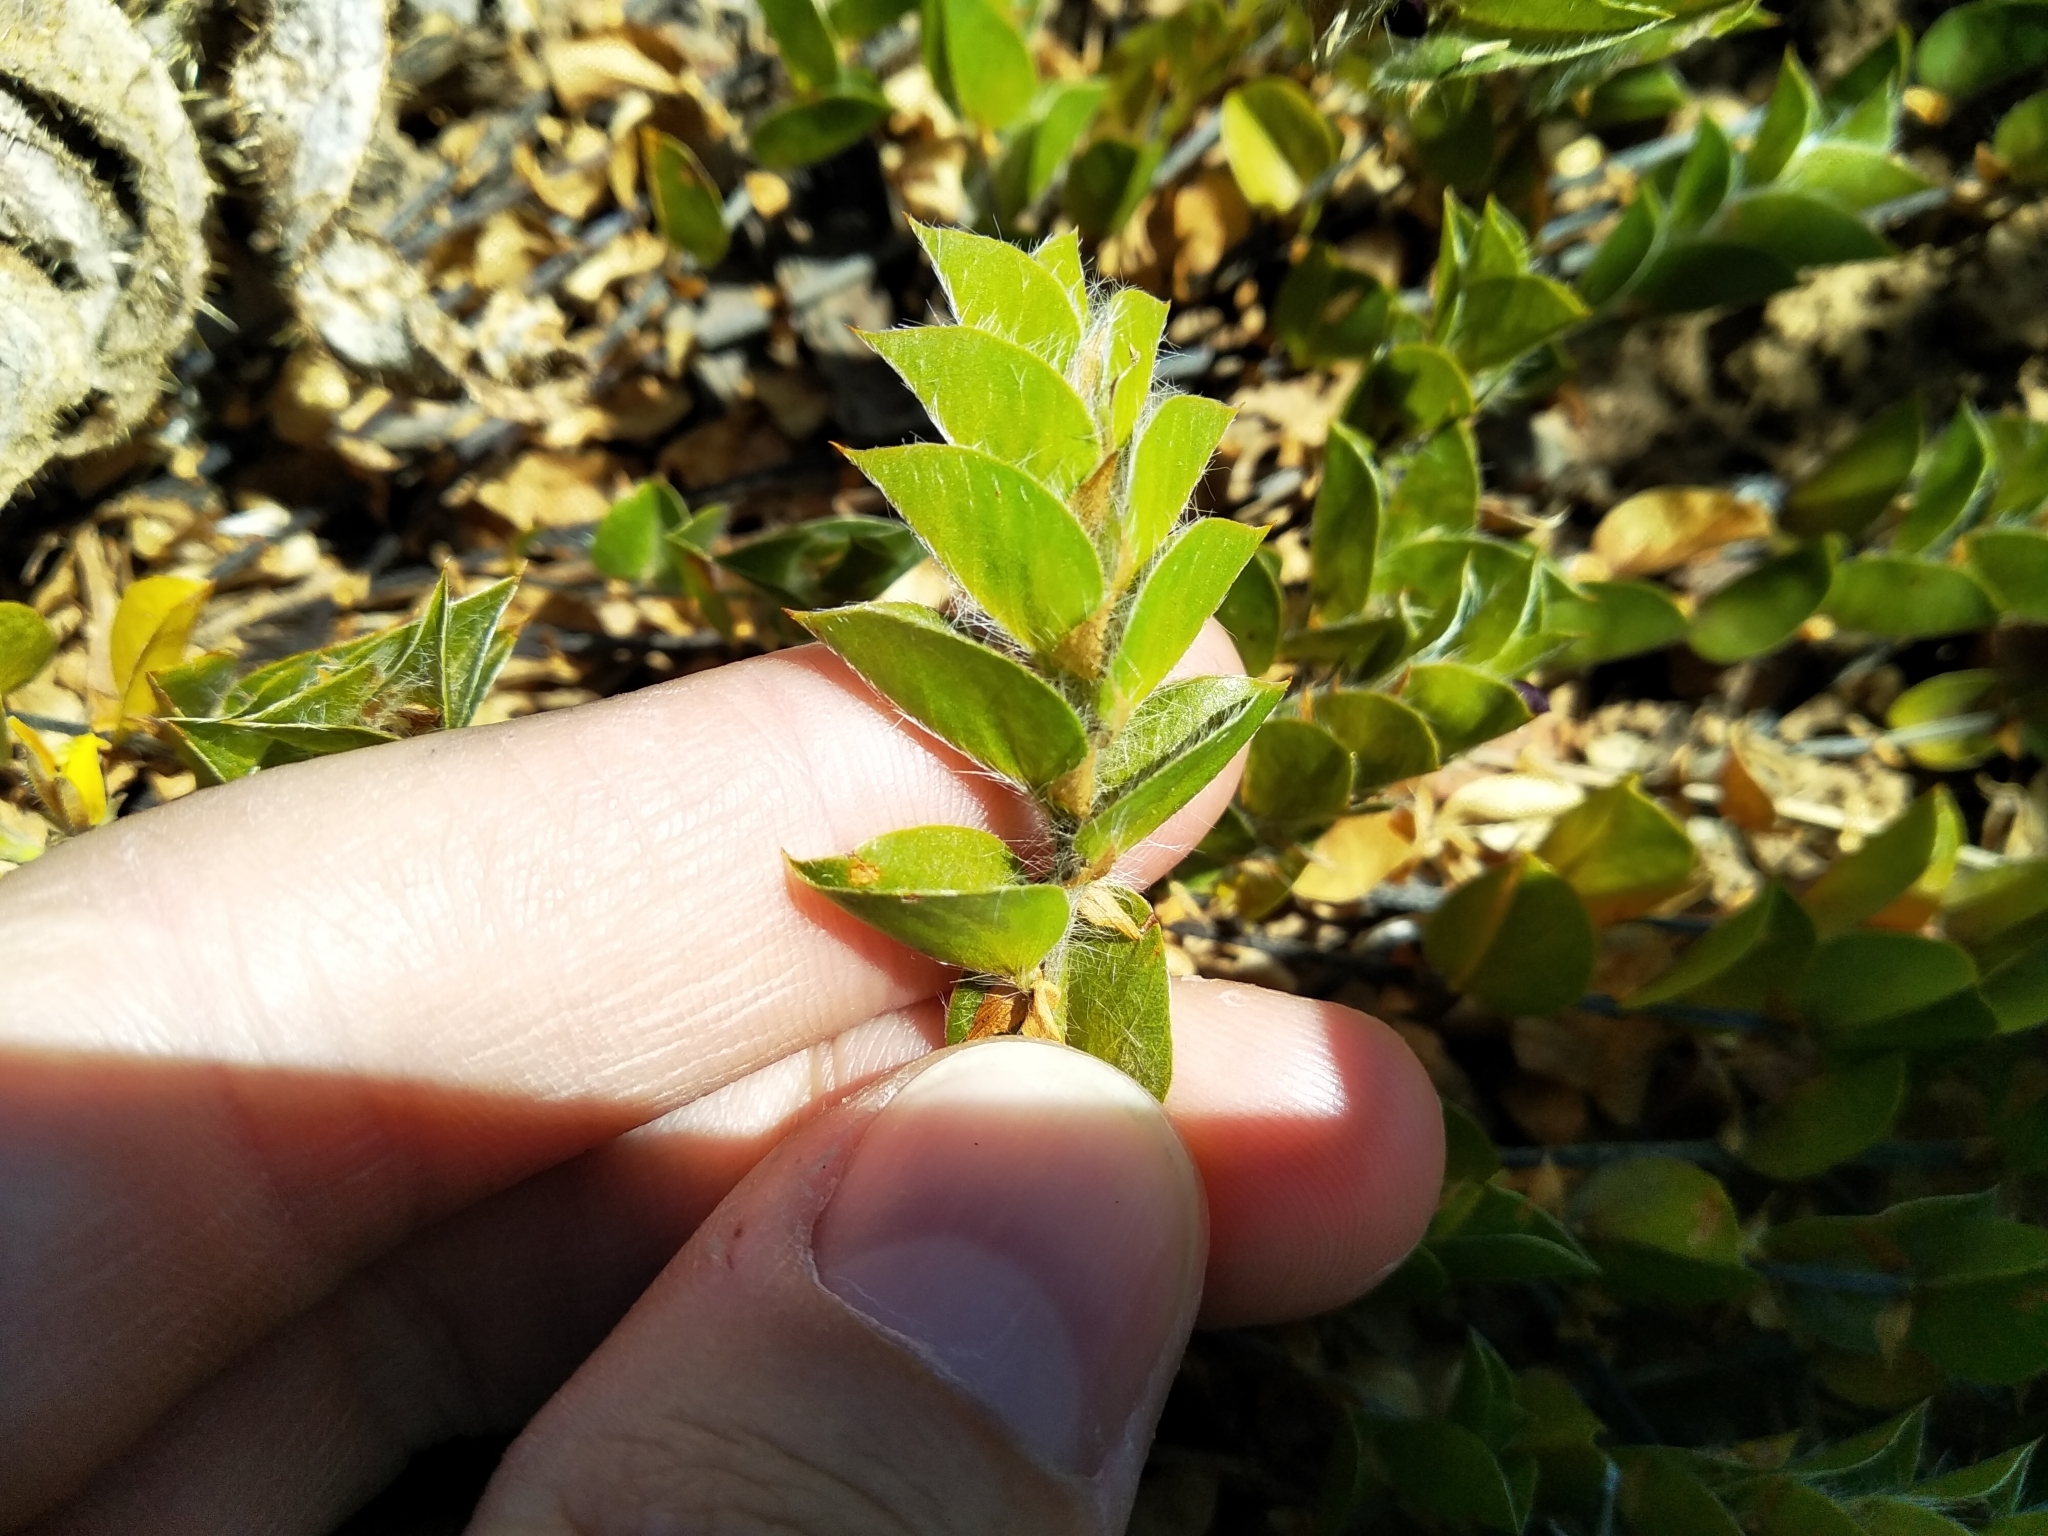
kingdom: Plantae
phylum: Tracheophyta
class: Magnoliopsida
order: Fabales
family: Fabaceae
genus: Psoralea
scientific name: Psoralea imbricata
